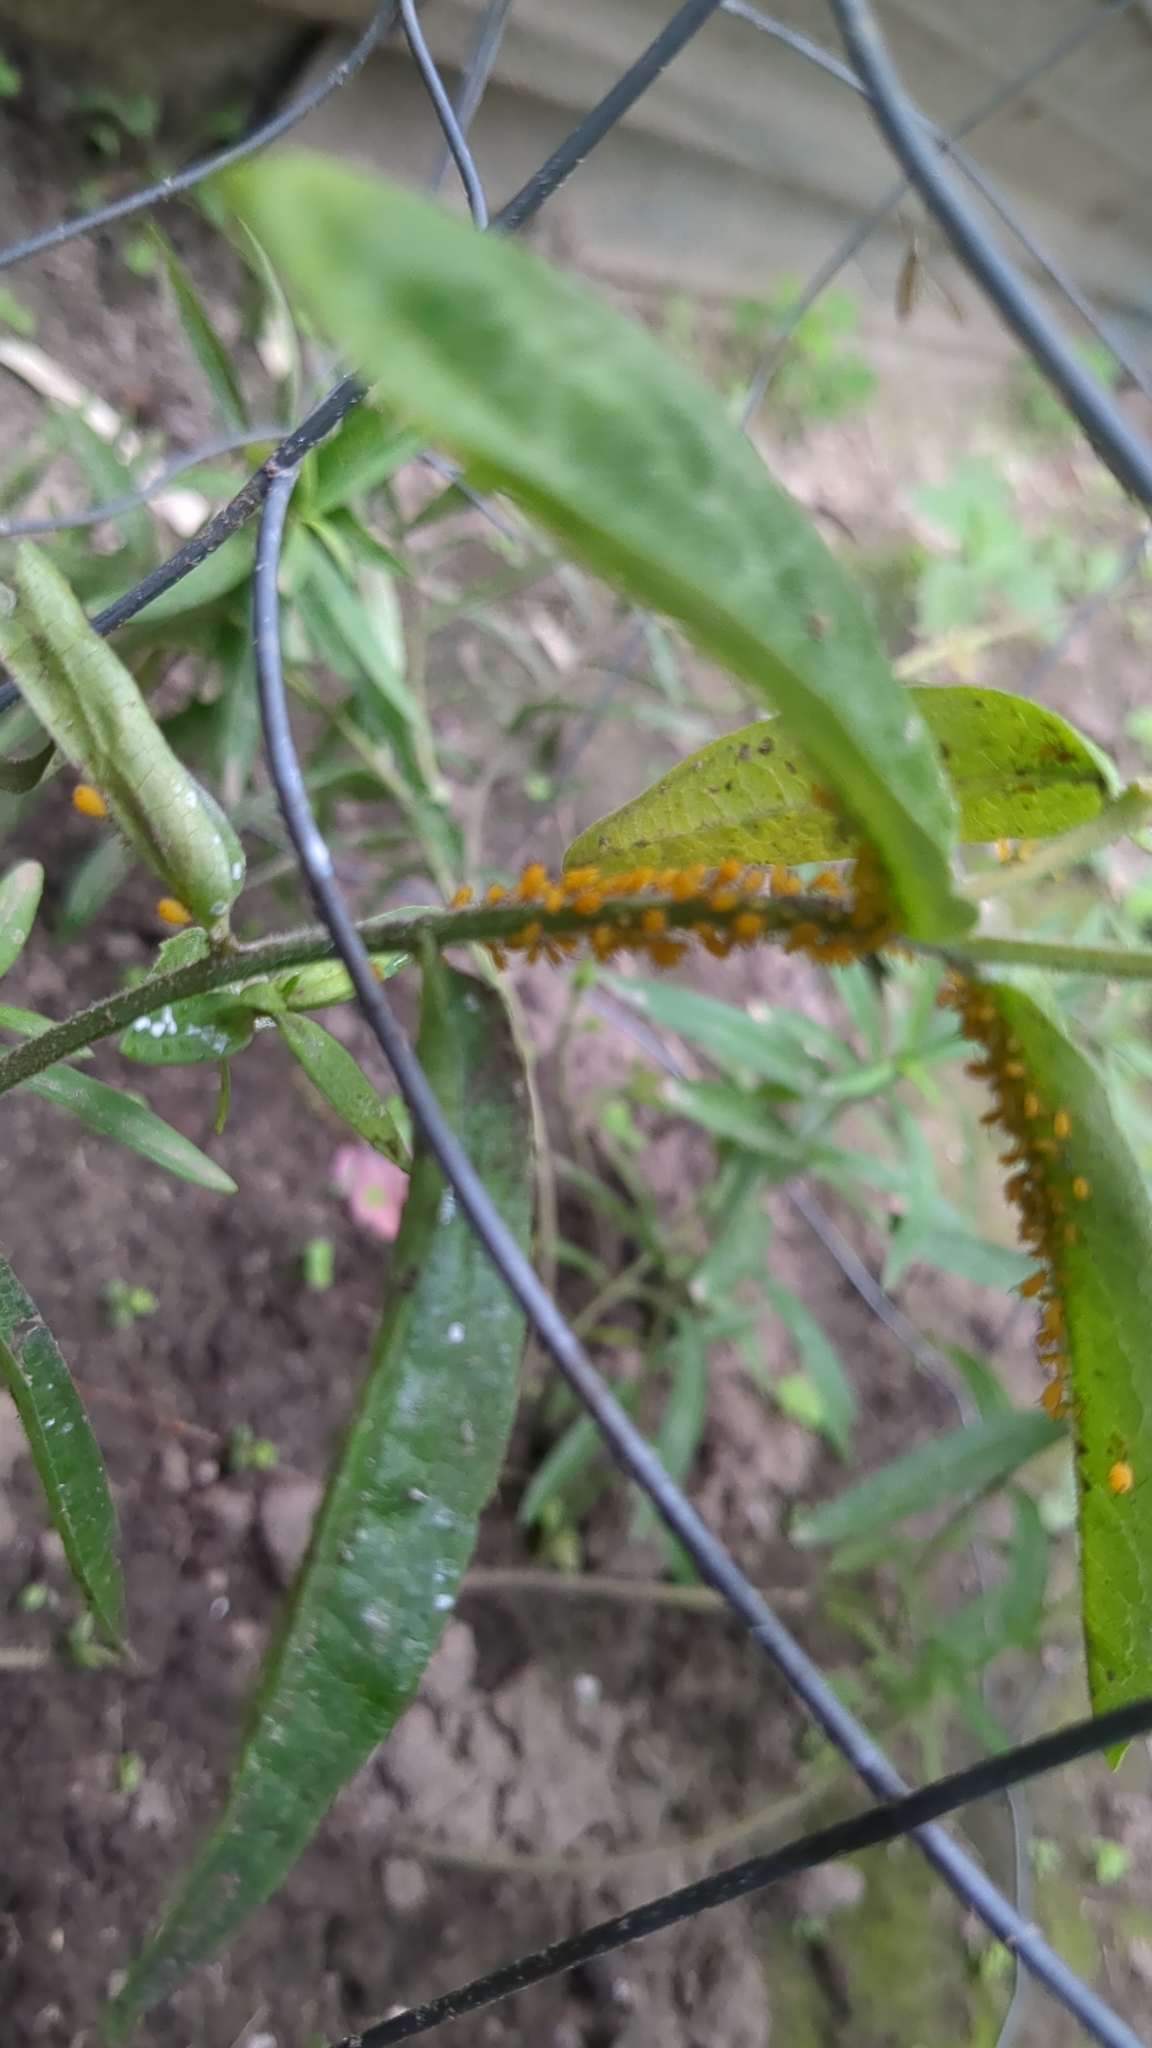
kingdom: Animalia
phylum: Arthropoda
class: Insecta
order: Hemiptera
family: Aphididae
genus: Aphis
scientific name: Aphis nerii
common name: Oleander aphid
